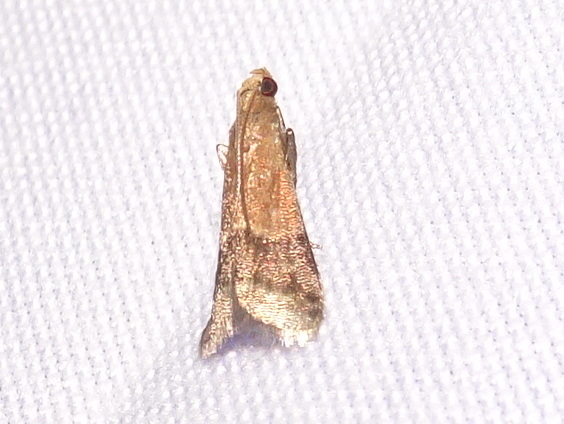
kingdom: Animalia
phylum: Arthropoda
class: Insecta
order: Lepidoptera
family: Pyralidae
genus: Eulogia
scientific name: Eulogia ochrifrontella
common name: Broad-banded eulogia moth
